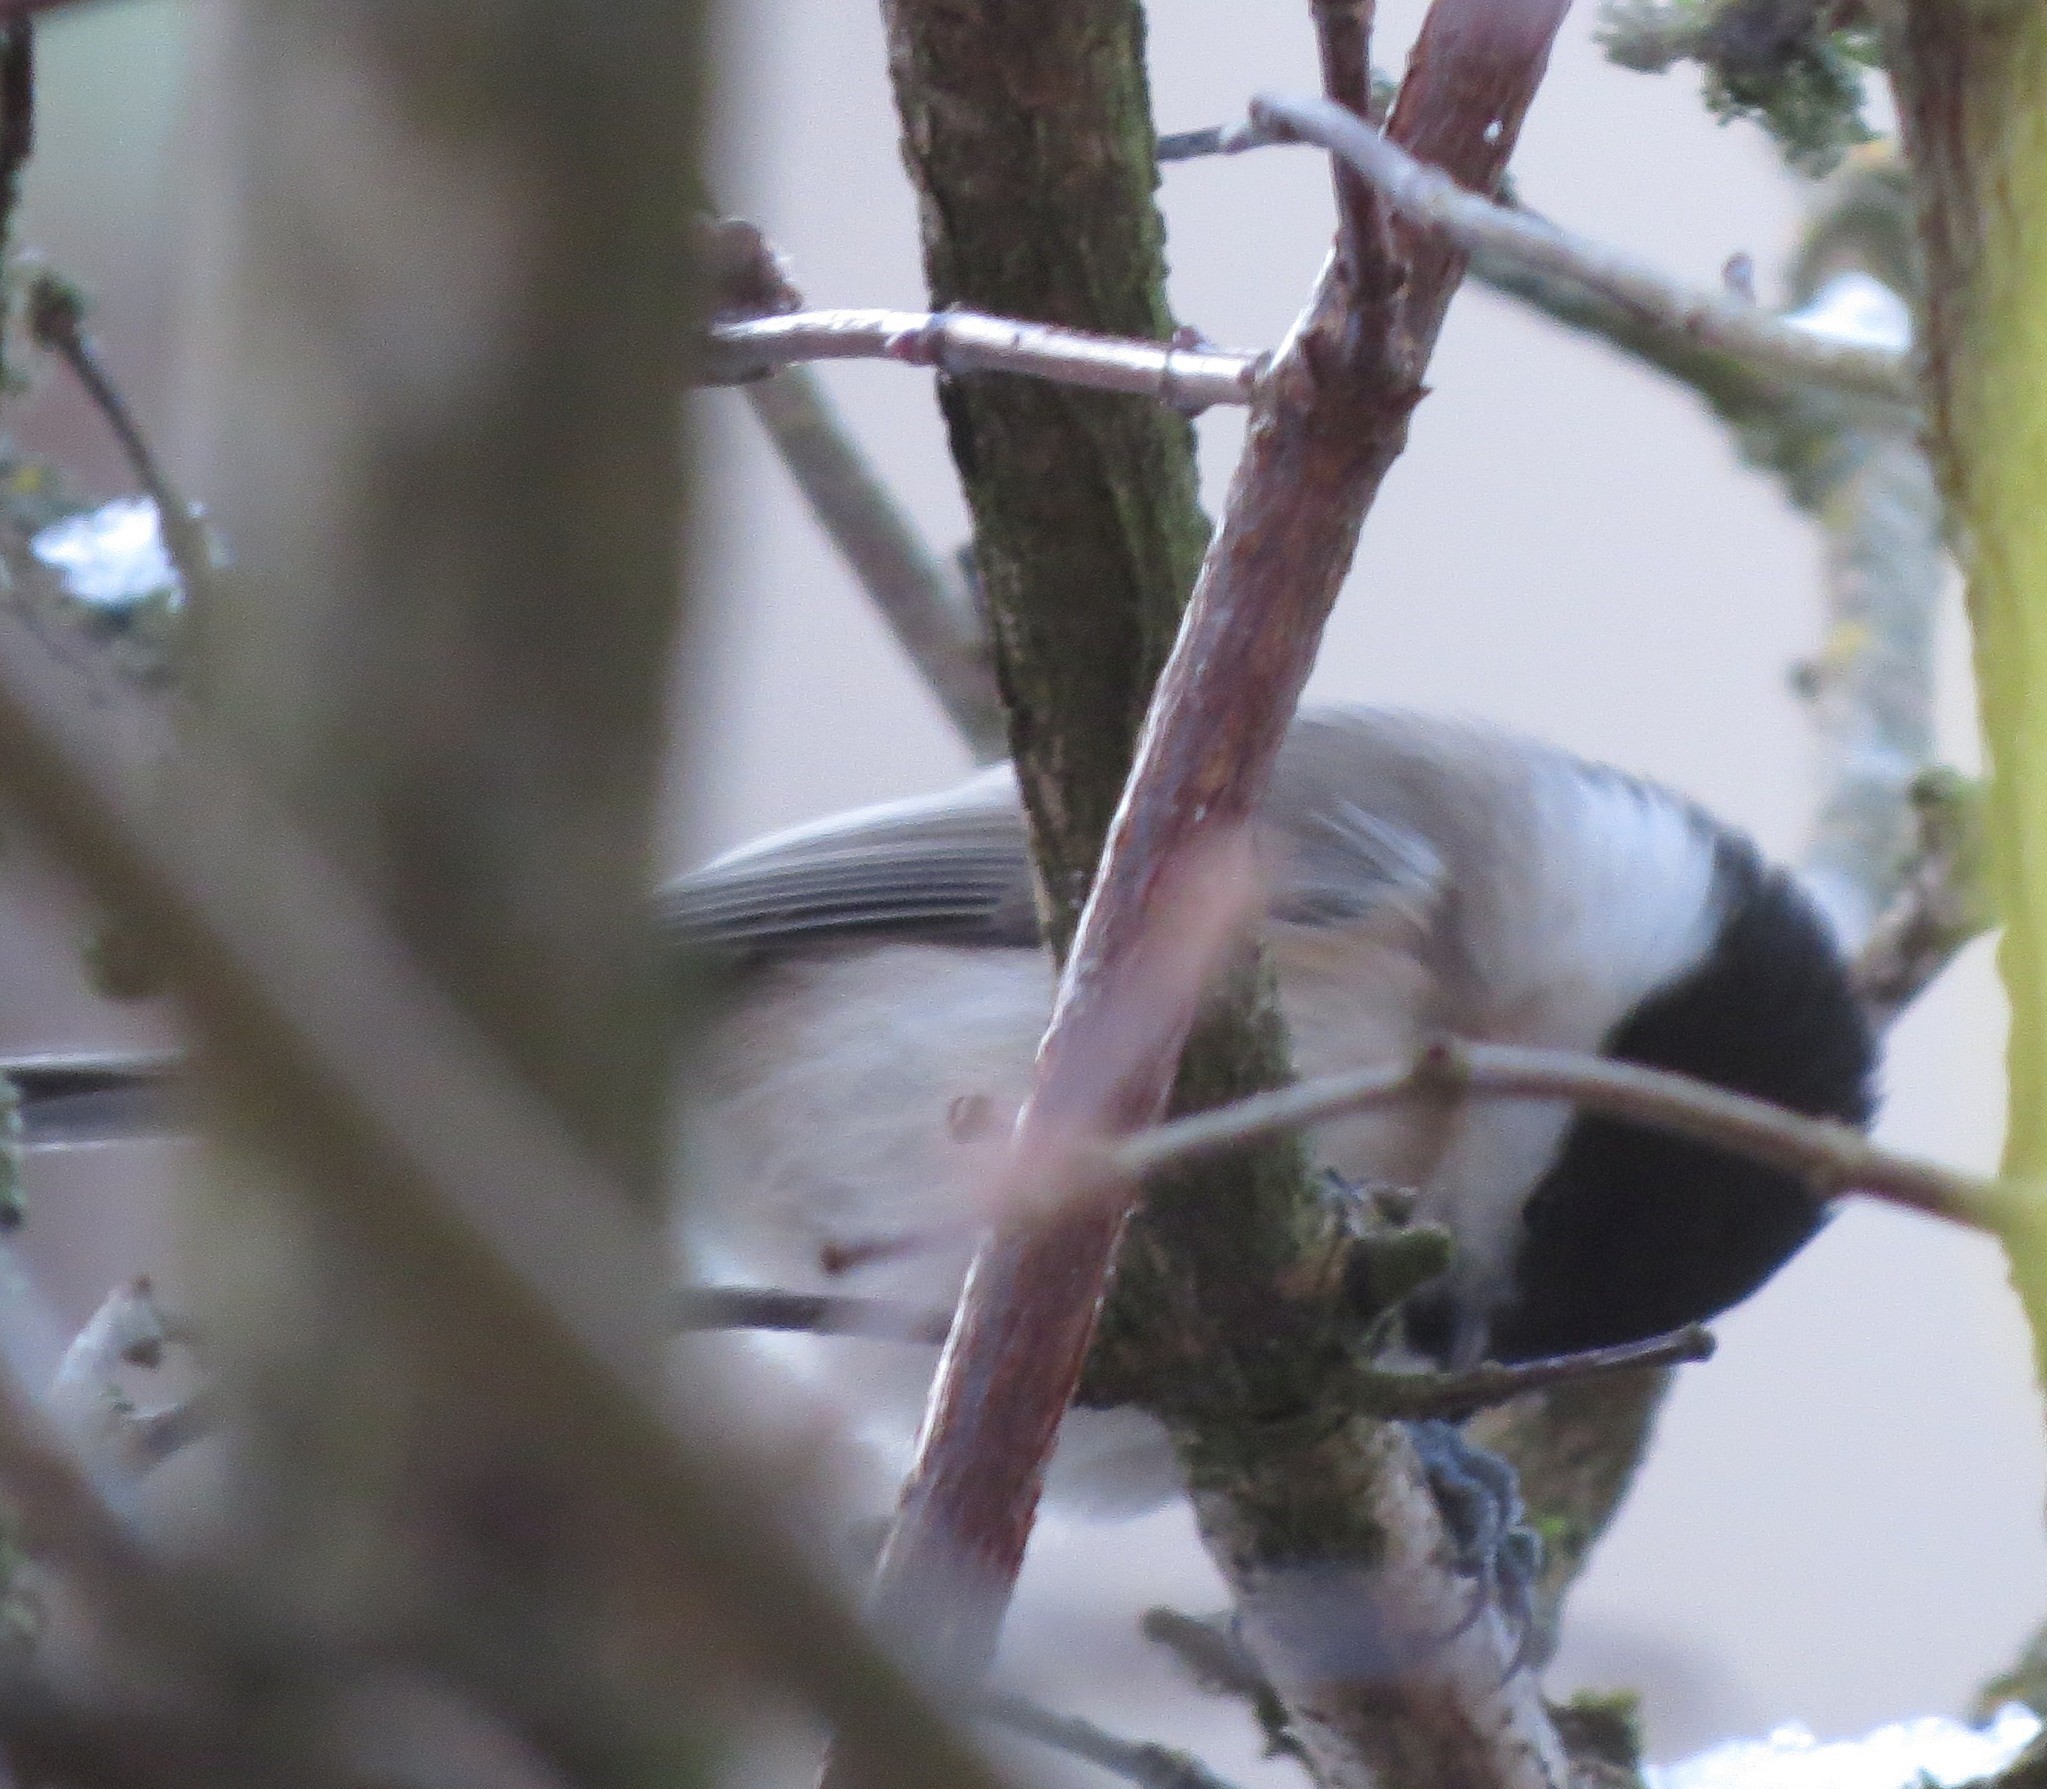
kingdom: Animalia
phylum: Chordata
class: Aves
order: Passeriformes
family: Paridae
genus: Poecile
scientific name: Poecile montanus
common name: Willow tit
